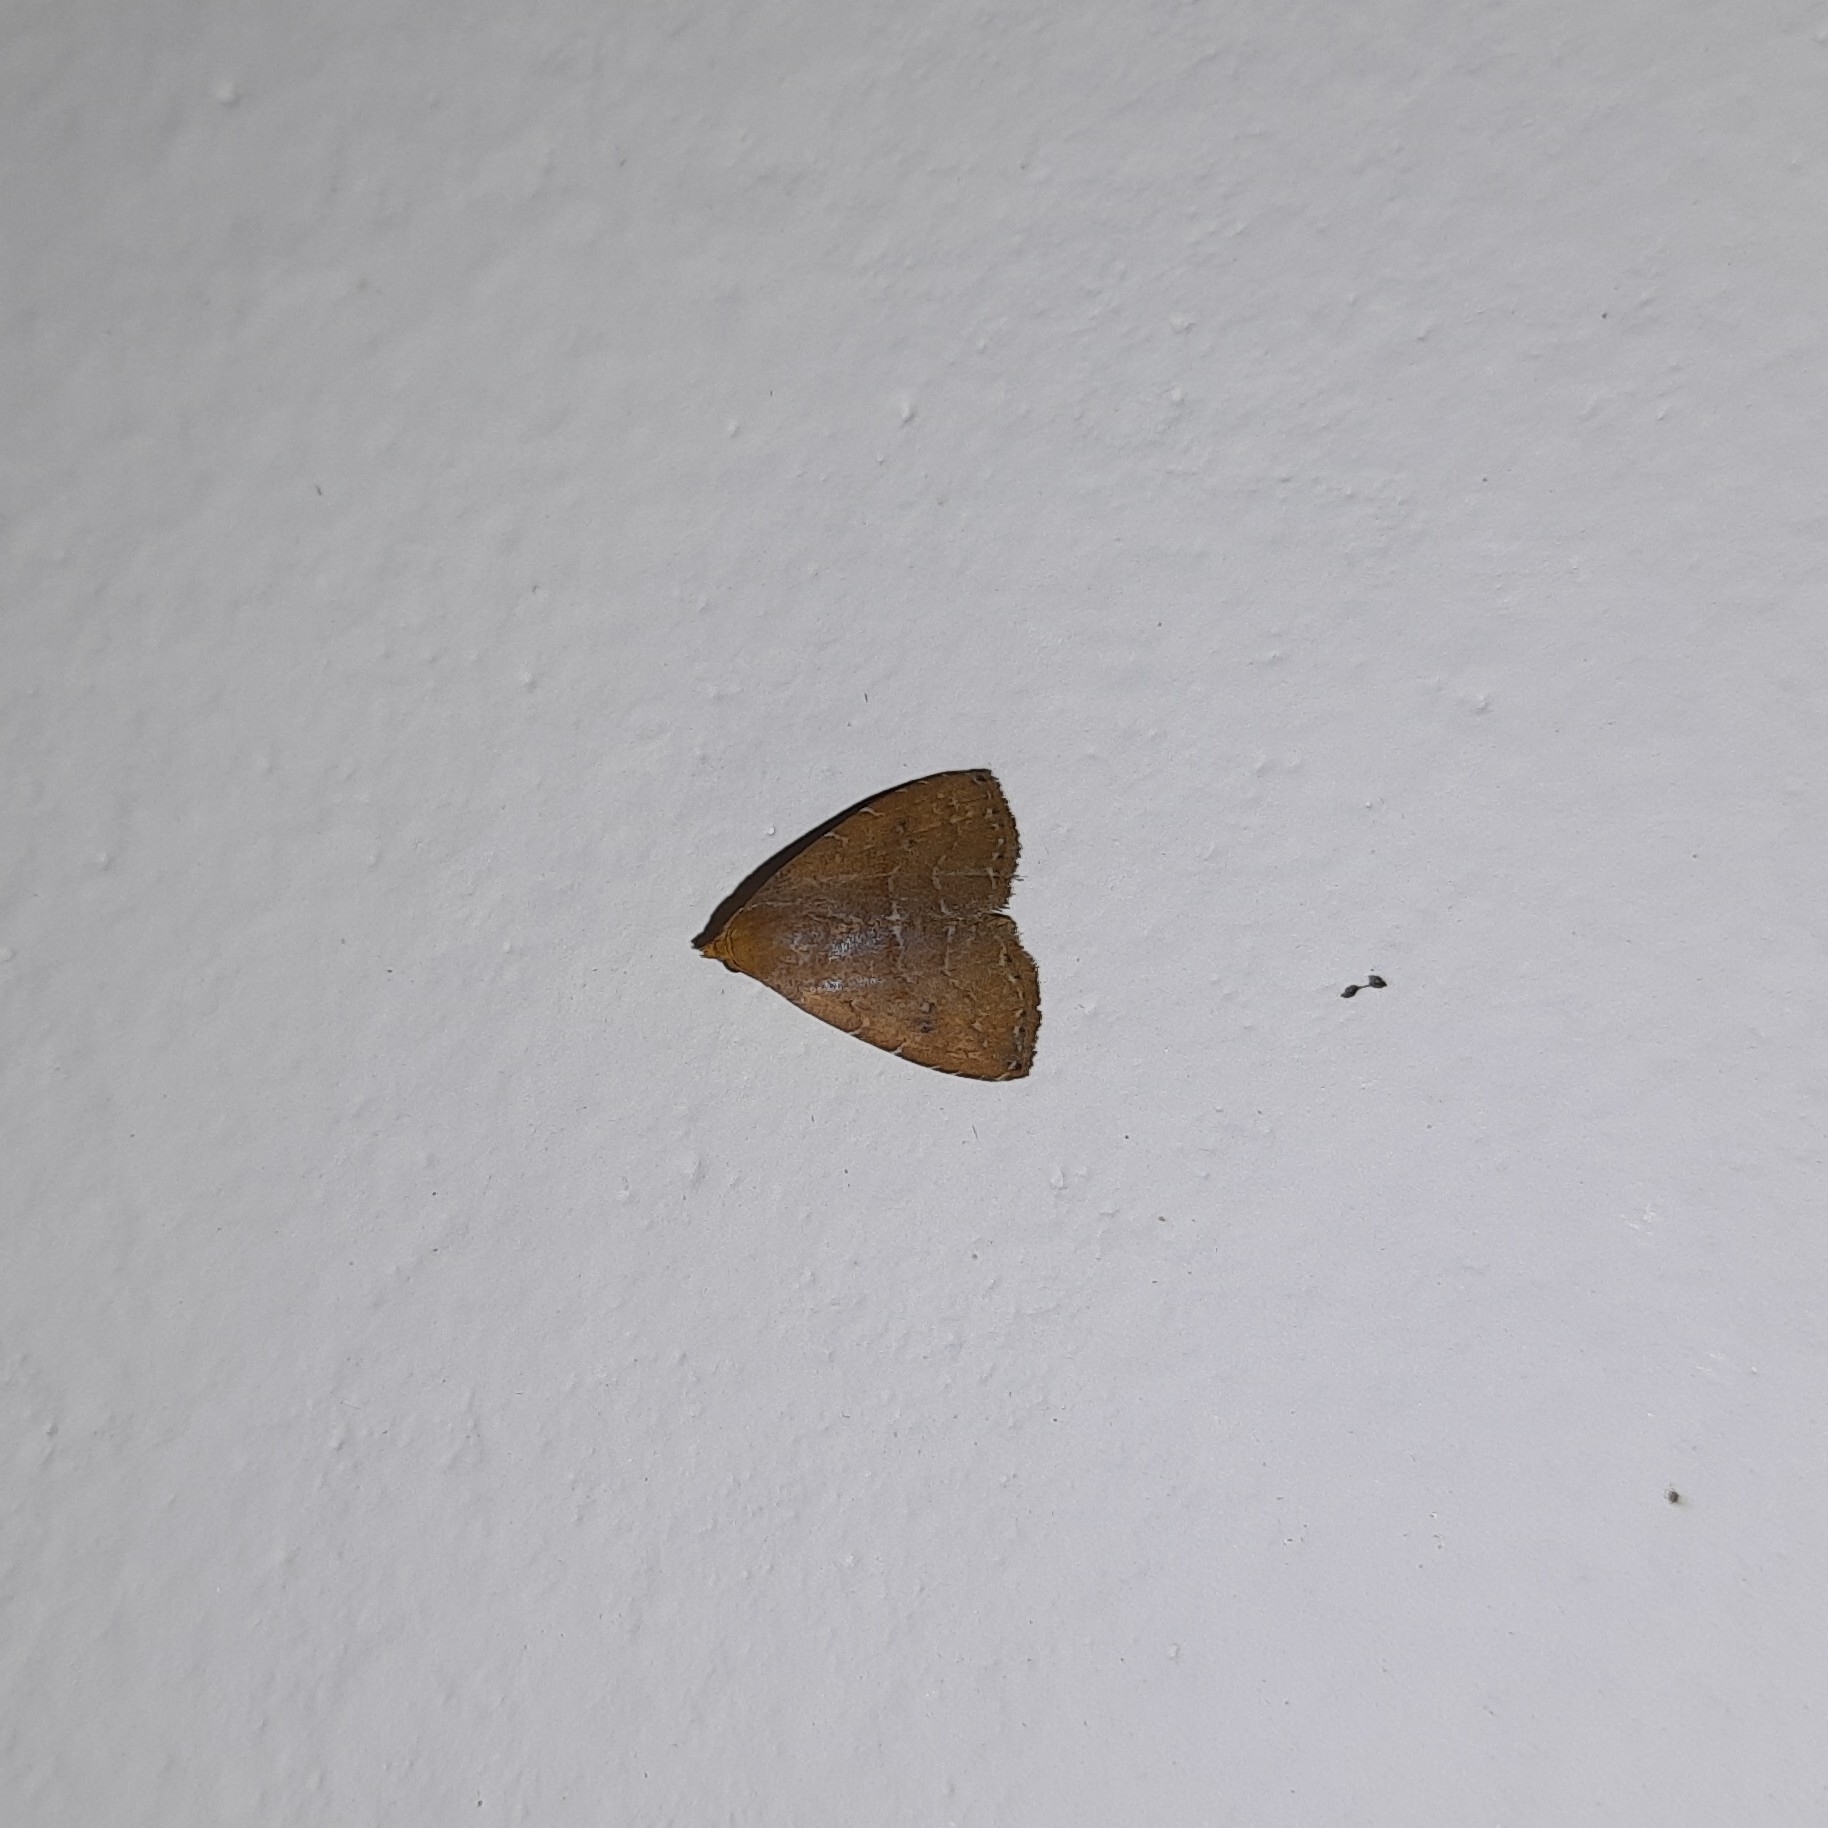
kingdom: Animalia
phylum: Arthropoda
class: Insecta
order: Lepidoptera
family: Erebidae
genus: Rivula
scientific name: Rivula bioculalis
